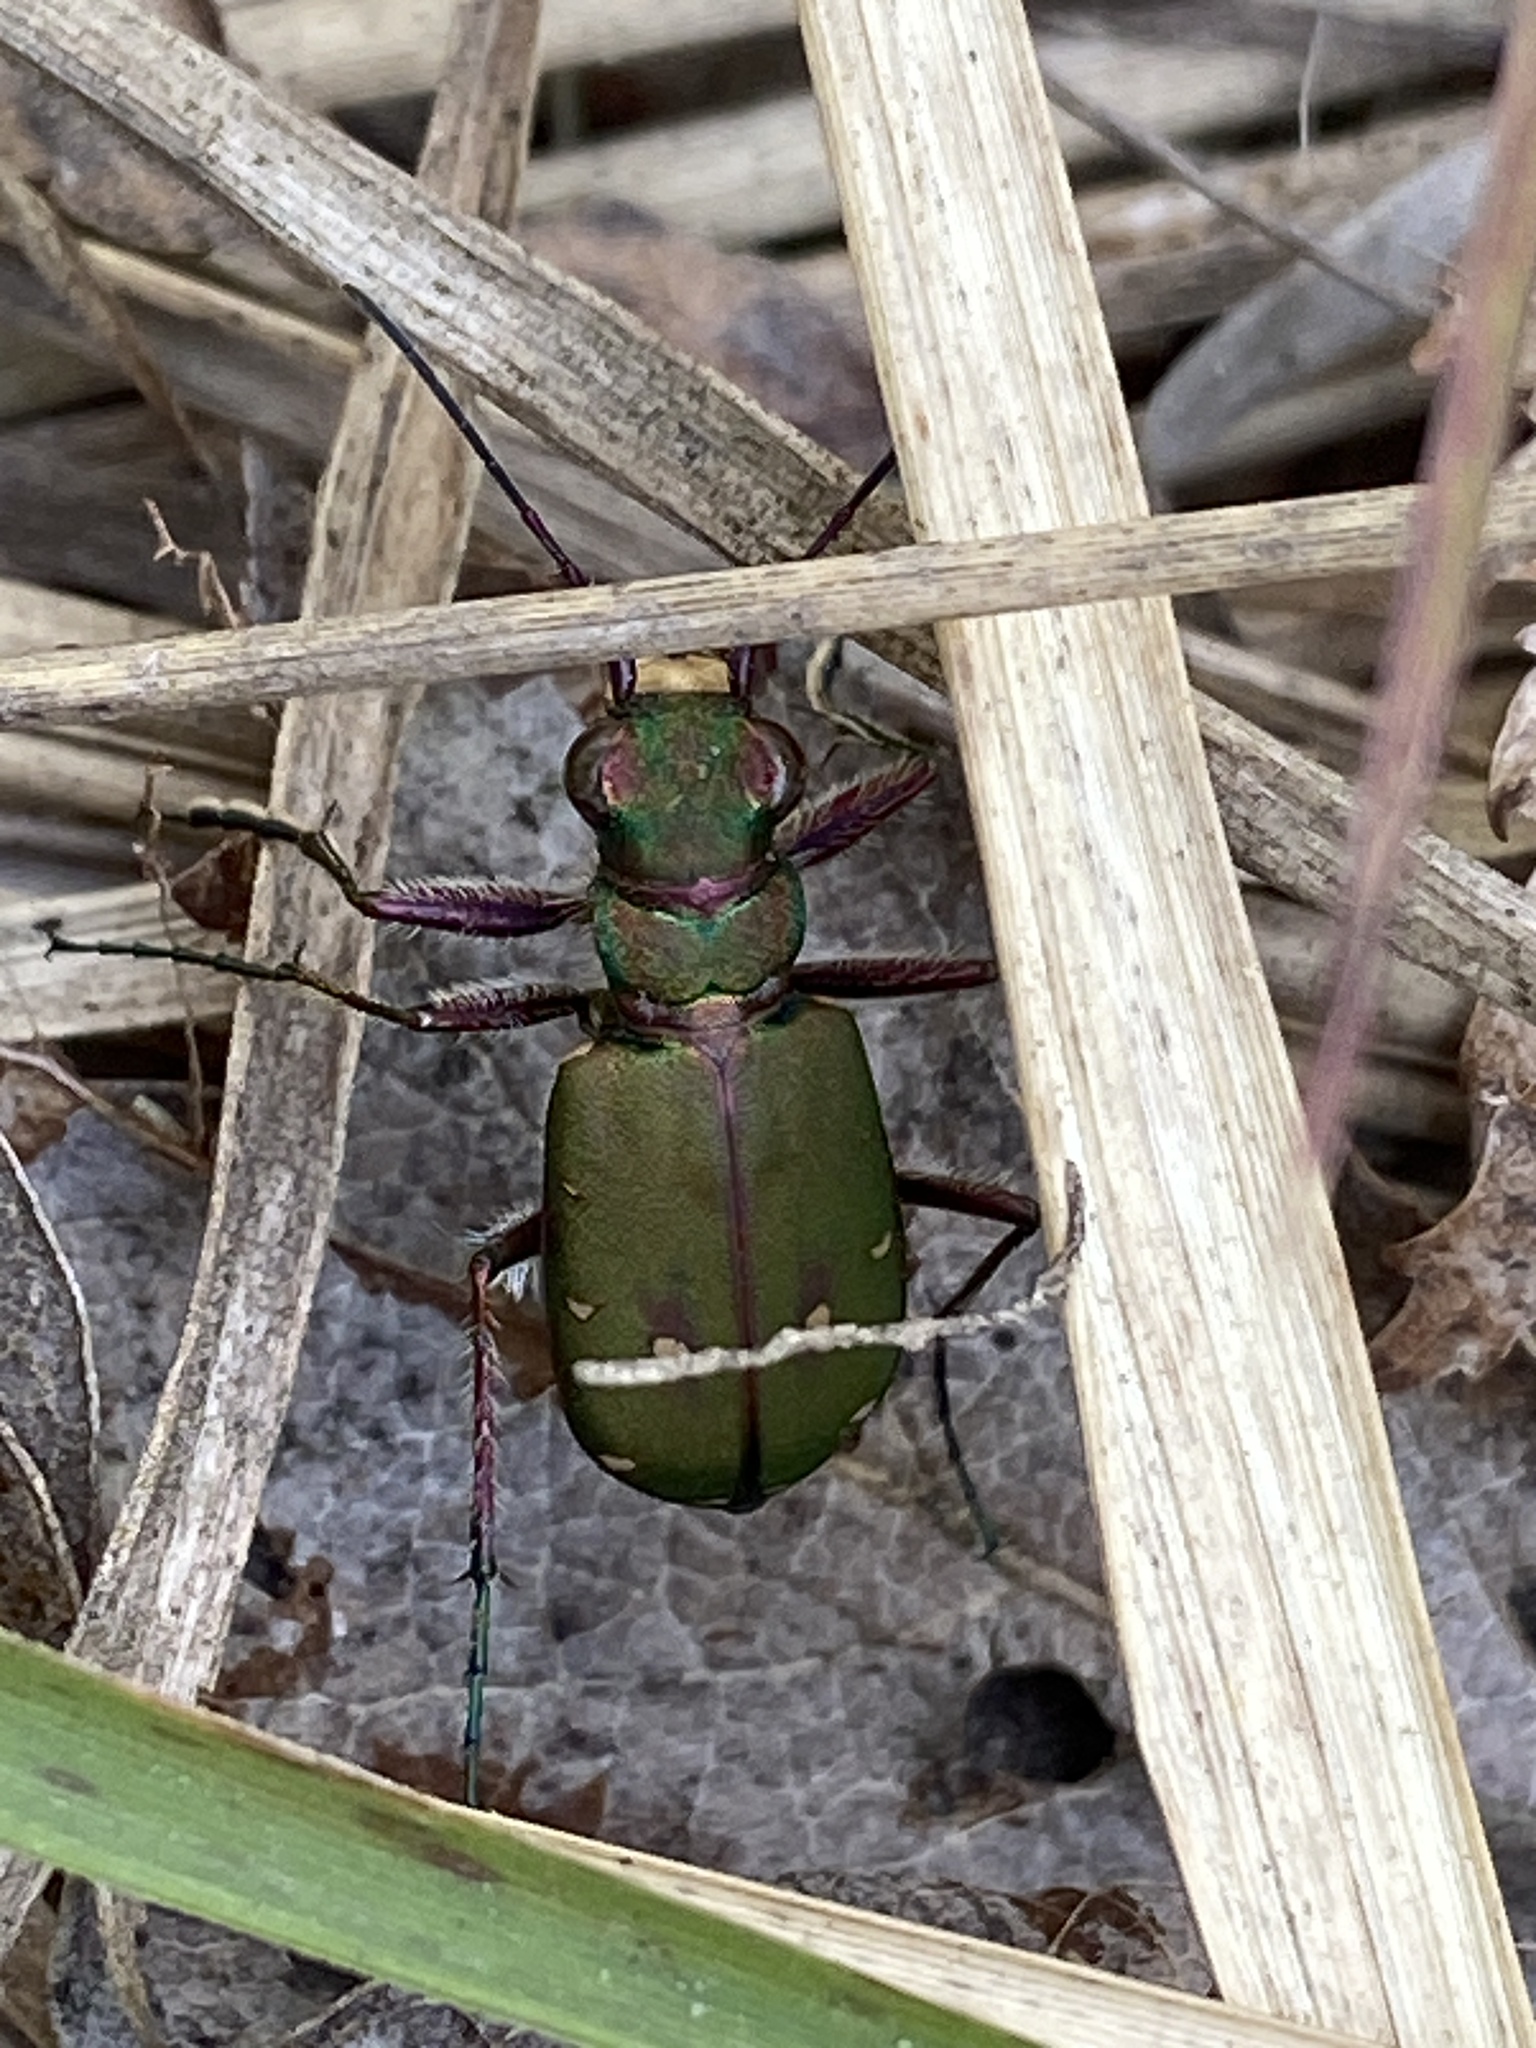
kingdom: Animalia
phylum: Arthropoda
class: Insecta
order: Coleoptera
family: Carabidae
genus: Cicindela
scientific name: Cicindela campestris
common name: Common tiger beetle
